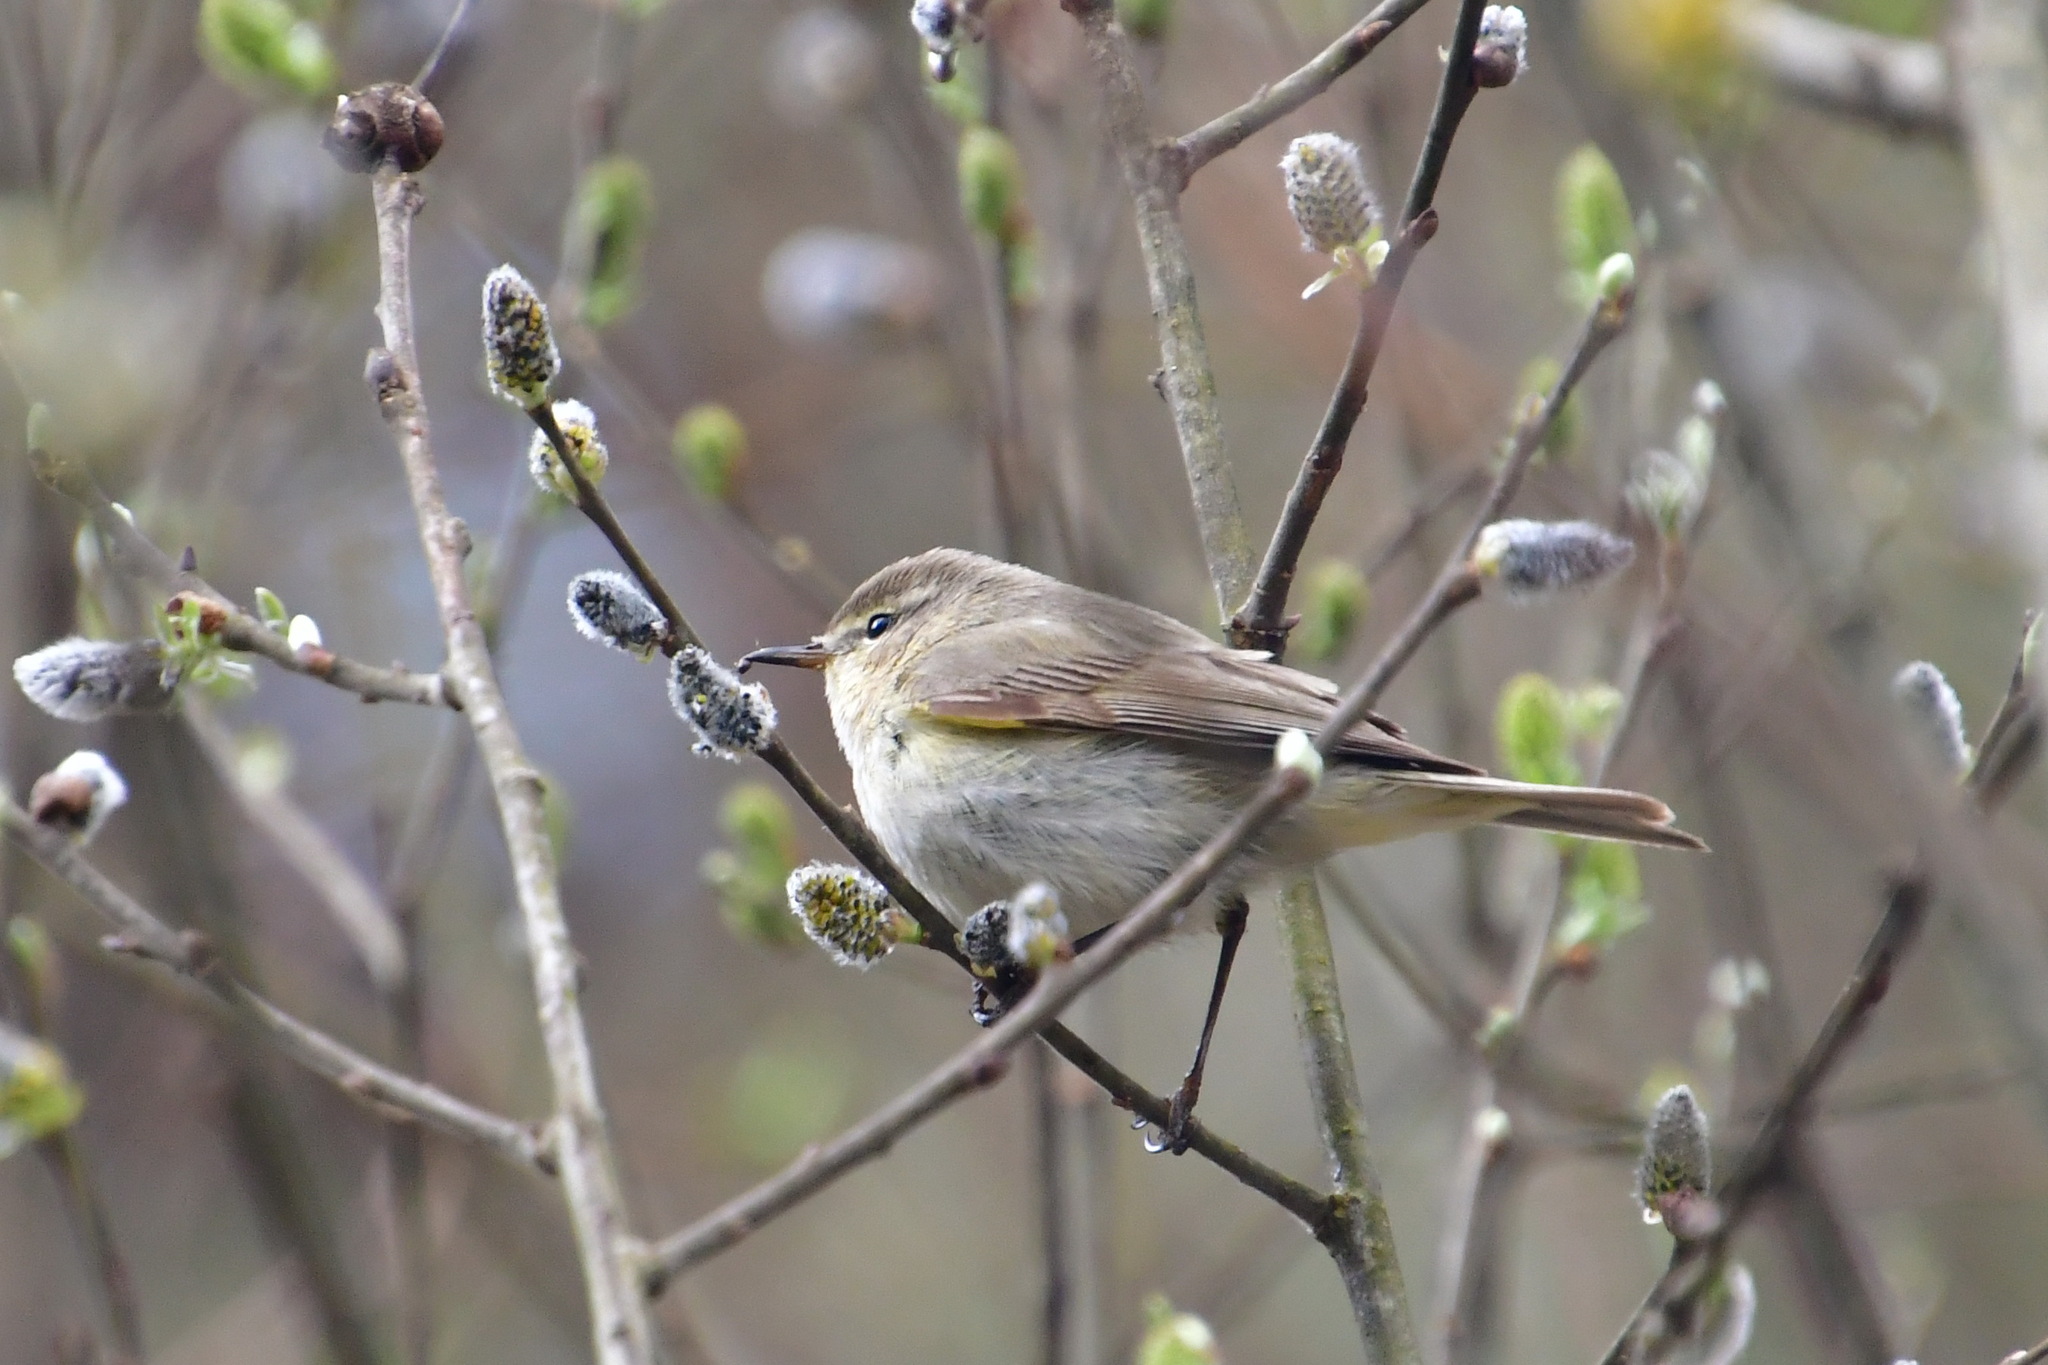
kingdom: Animalia
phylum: Chordata
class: Aves
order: Passeriformes
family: Phylloscopidae
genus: Phylloscopus
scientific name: Phylloscopus collybita
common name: Common chiffchaff
